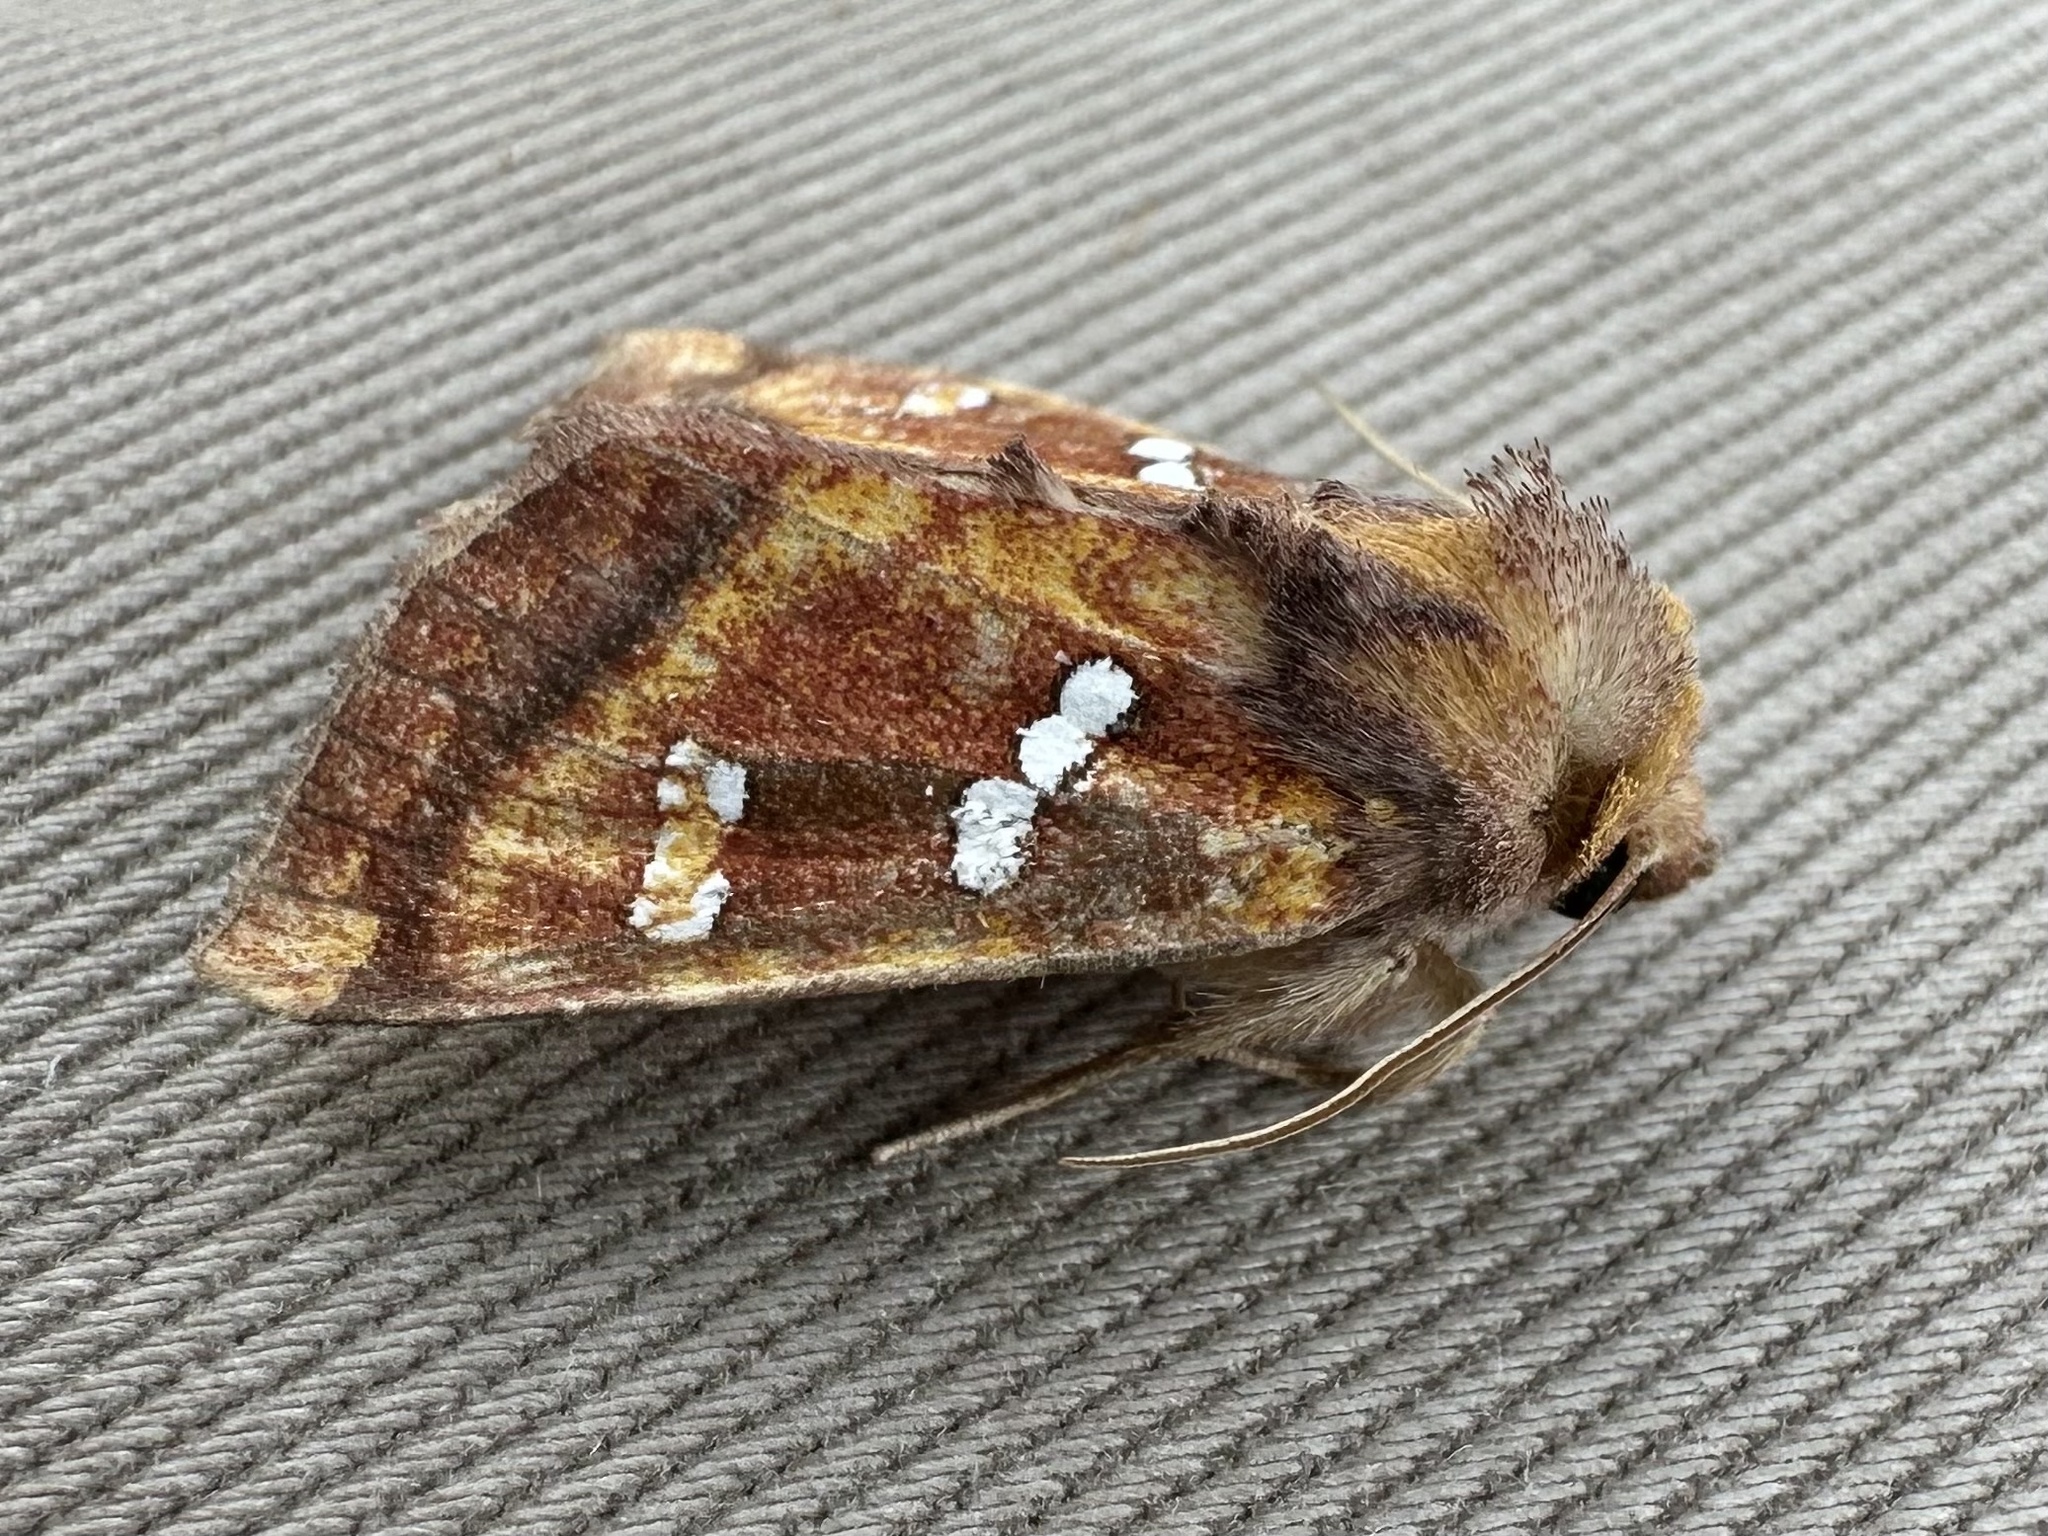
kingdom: Animalia
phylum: Arthropoda
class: Insecta
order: Lepidoptera
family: Noctuidae
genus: Papaipema
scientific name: Papaipema pterisii
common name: Bracken borer moth
